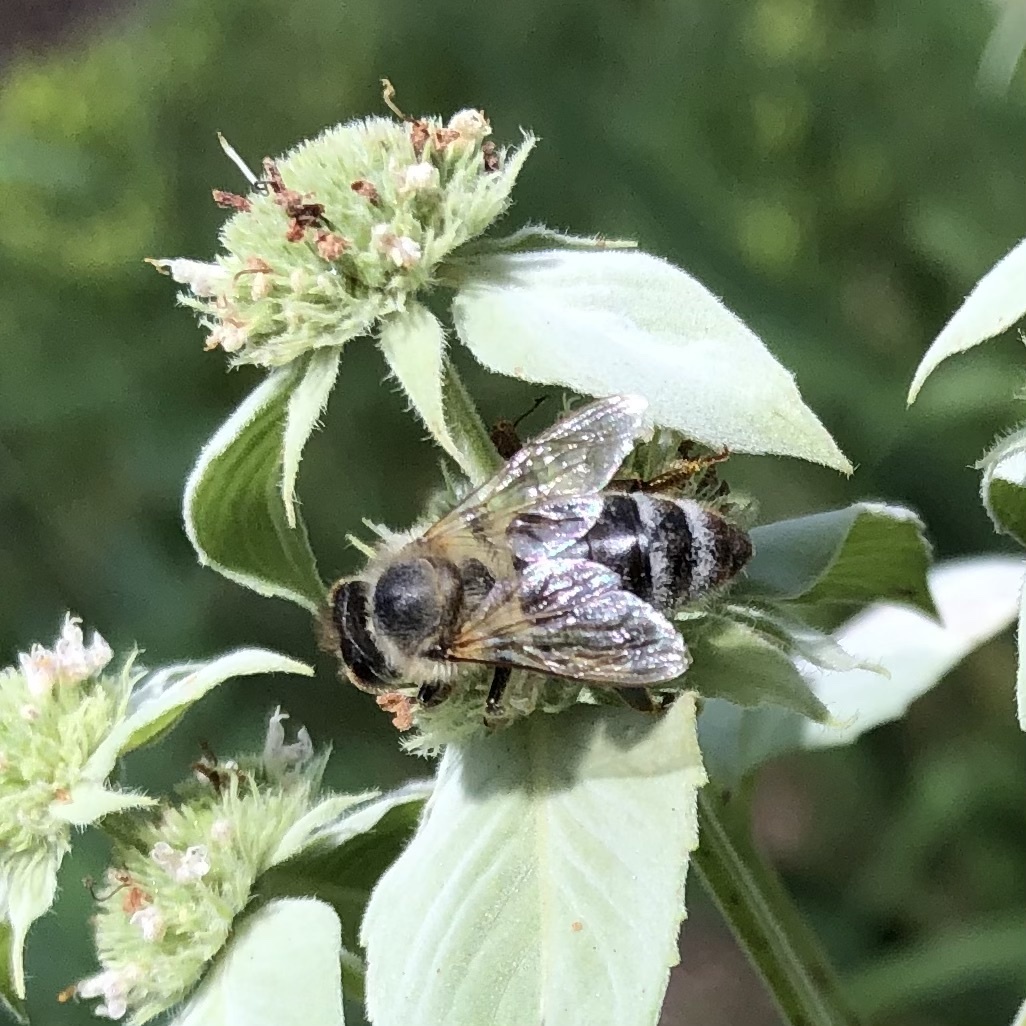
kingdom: Animalia
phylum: Arthropoda
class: Insecta
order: Hymenoptera
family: Apidae
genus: Apis
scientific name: Apis mellifera
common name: Honey bee
